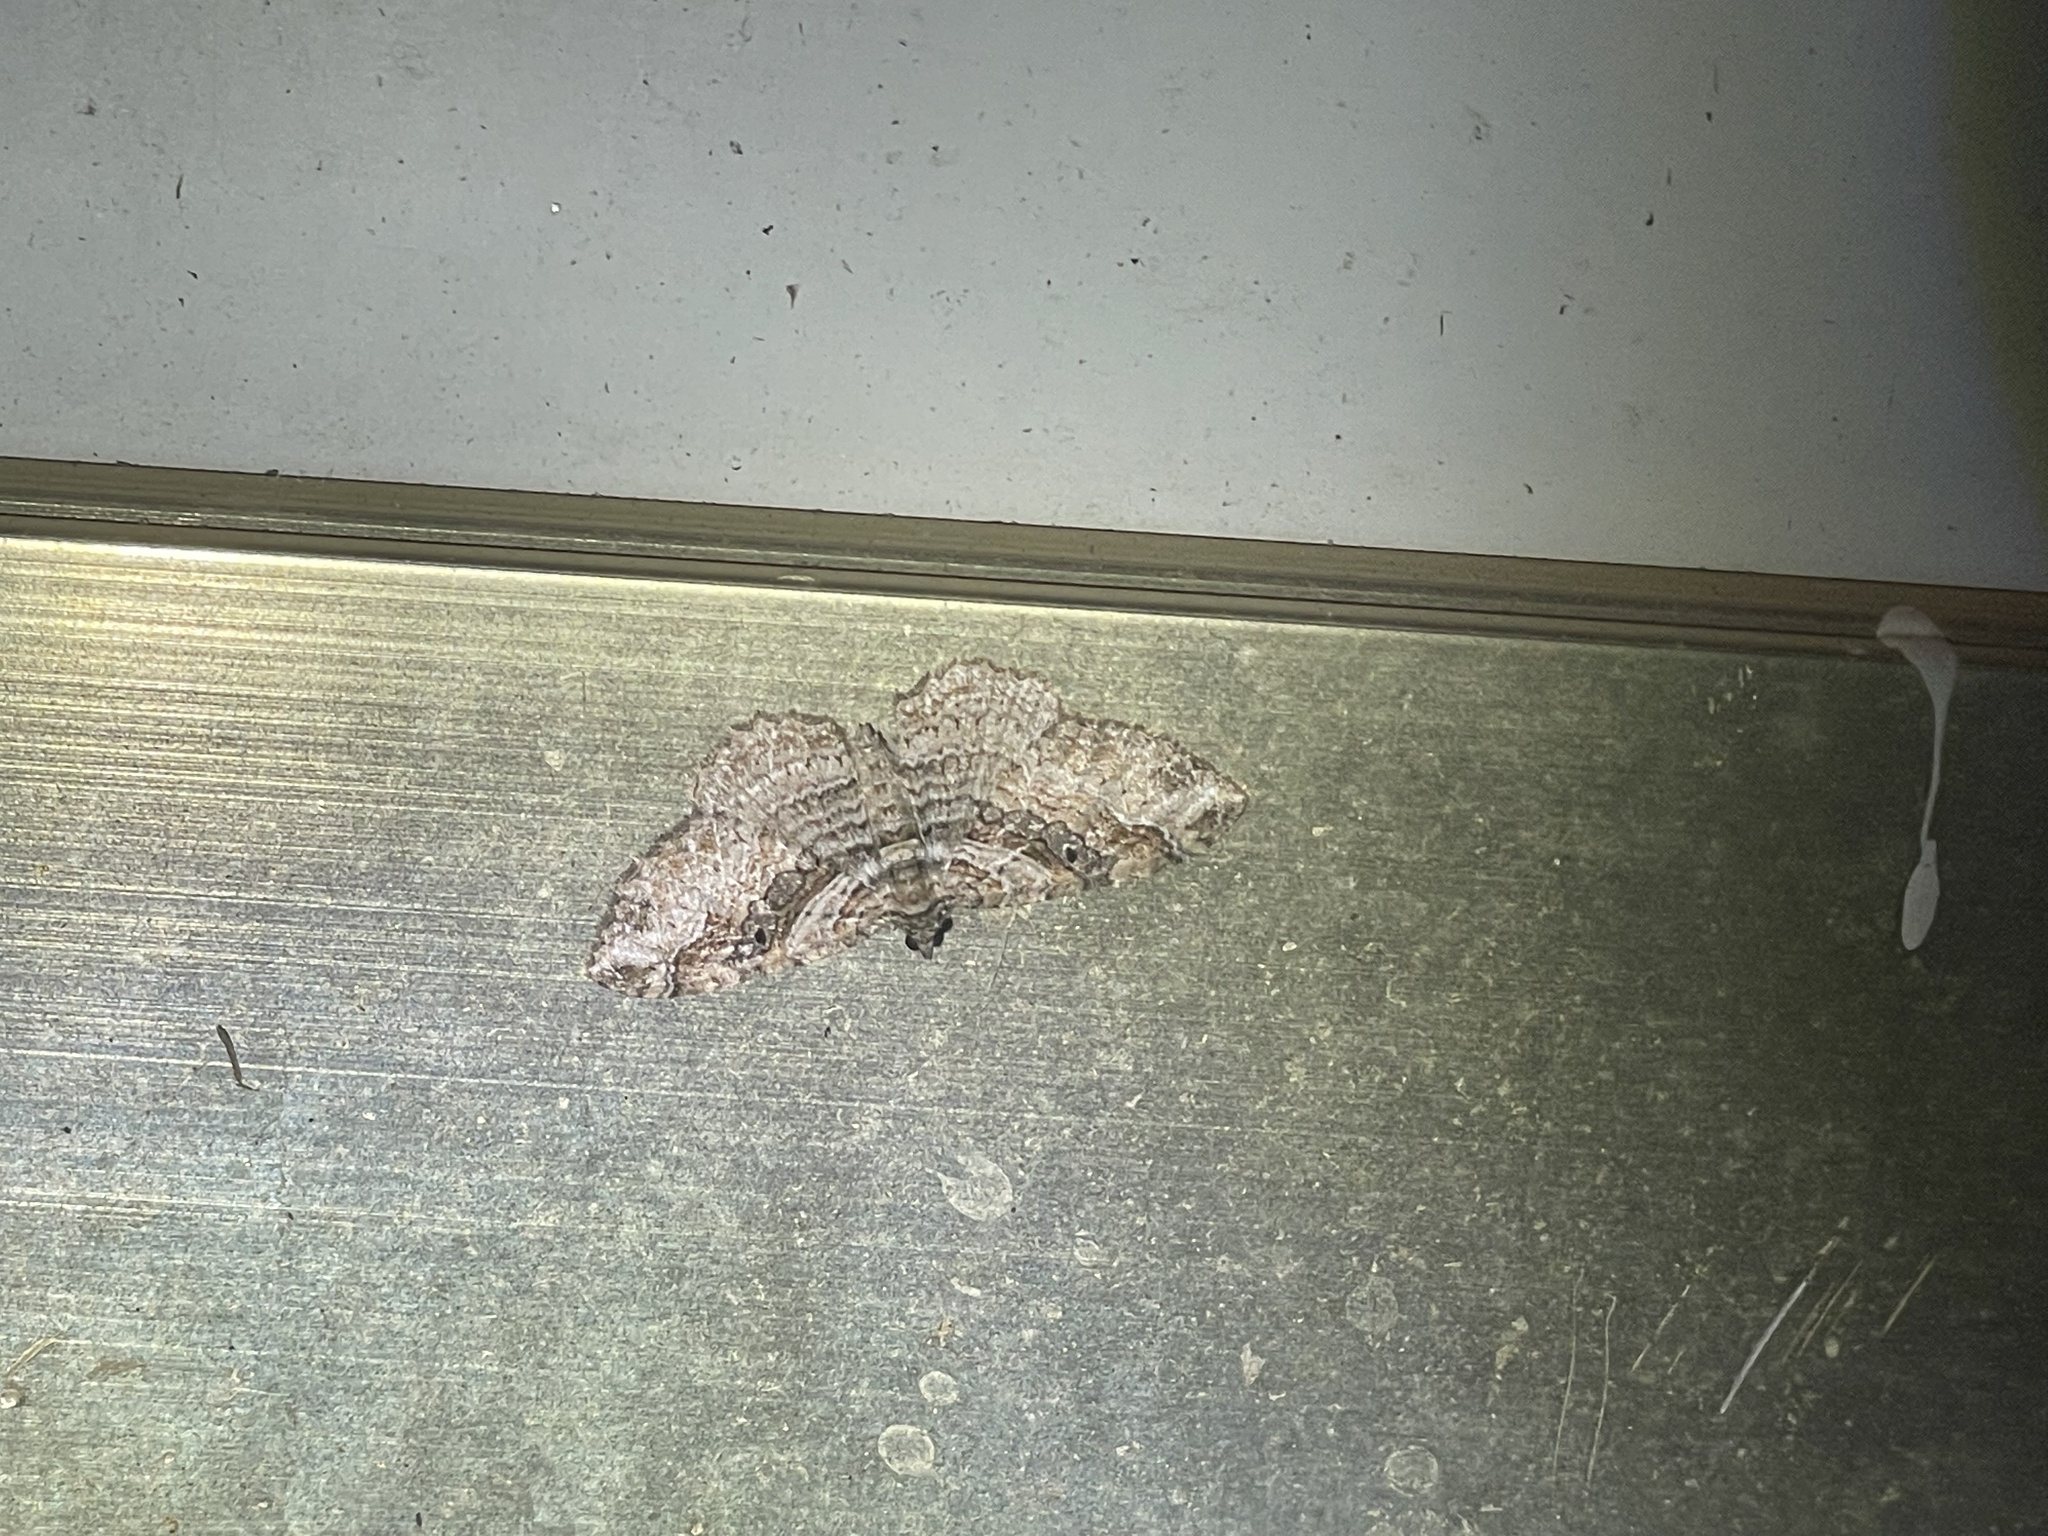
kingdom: Animalia
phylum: Arthropoda
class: Insecta
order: Lepidoptera
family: Geometridae
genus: Costaconvexa
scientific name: Costaconvexa centrostrigaria
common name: Bent-line carpet
